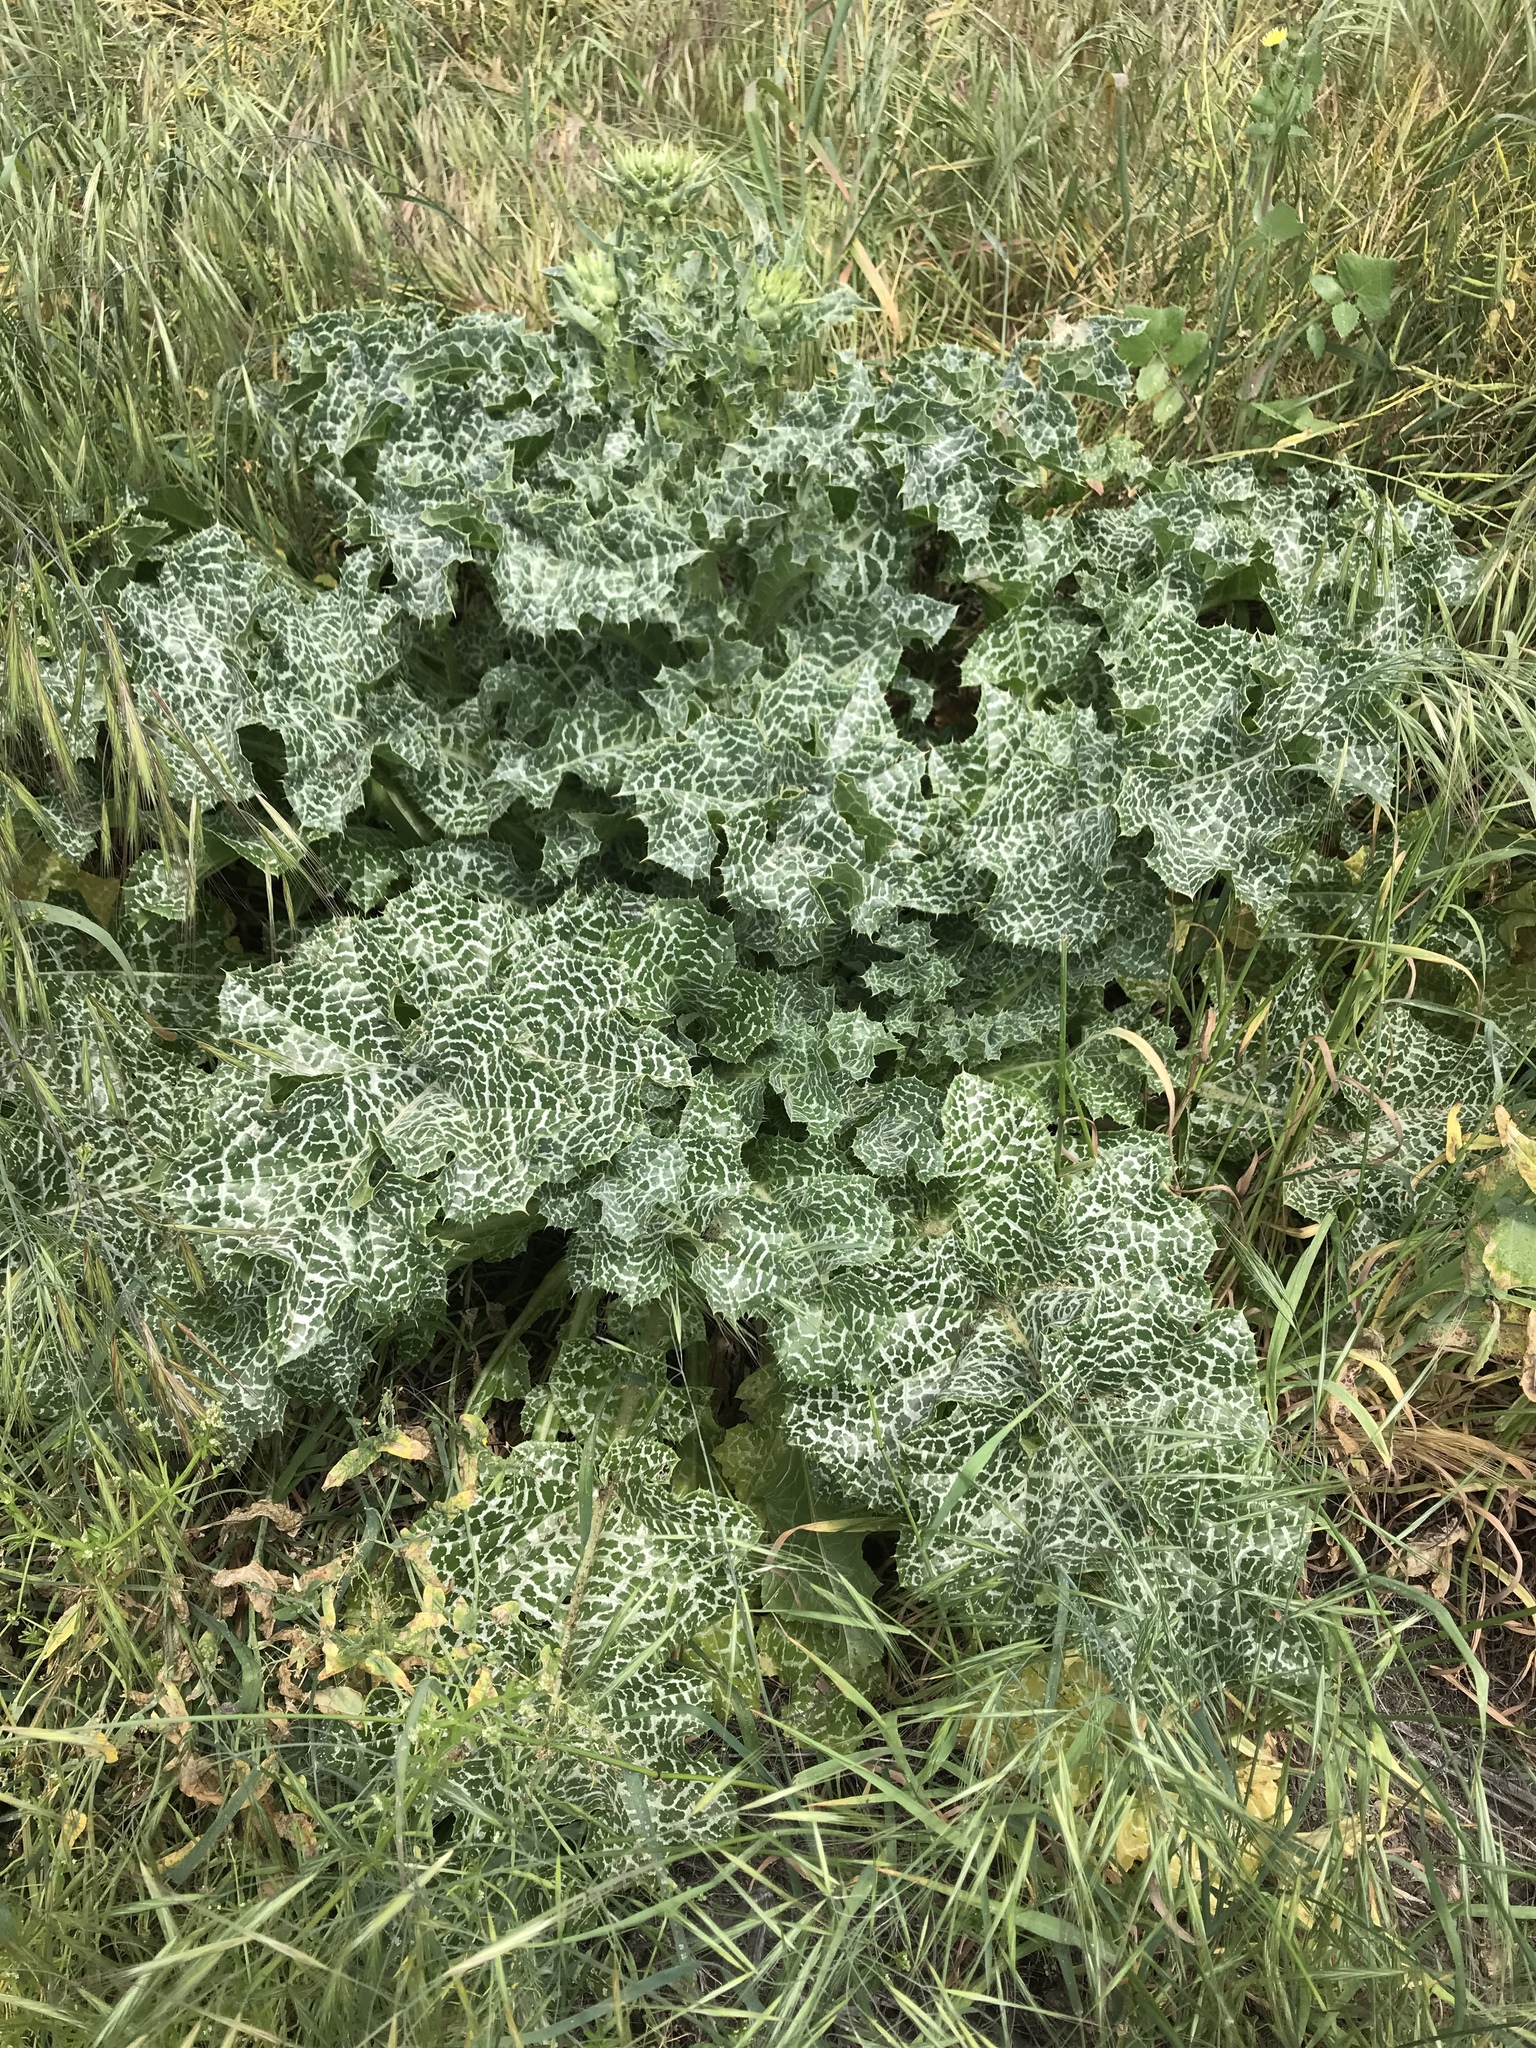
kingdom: Plantae
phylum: Tracheophyta
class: Magnoliopsida
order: Asterales
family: Asteraceae
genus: Silybum
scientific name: Silybum marianum
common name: Milk thistle
